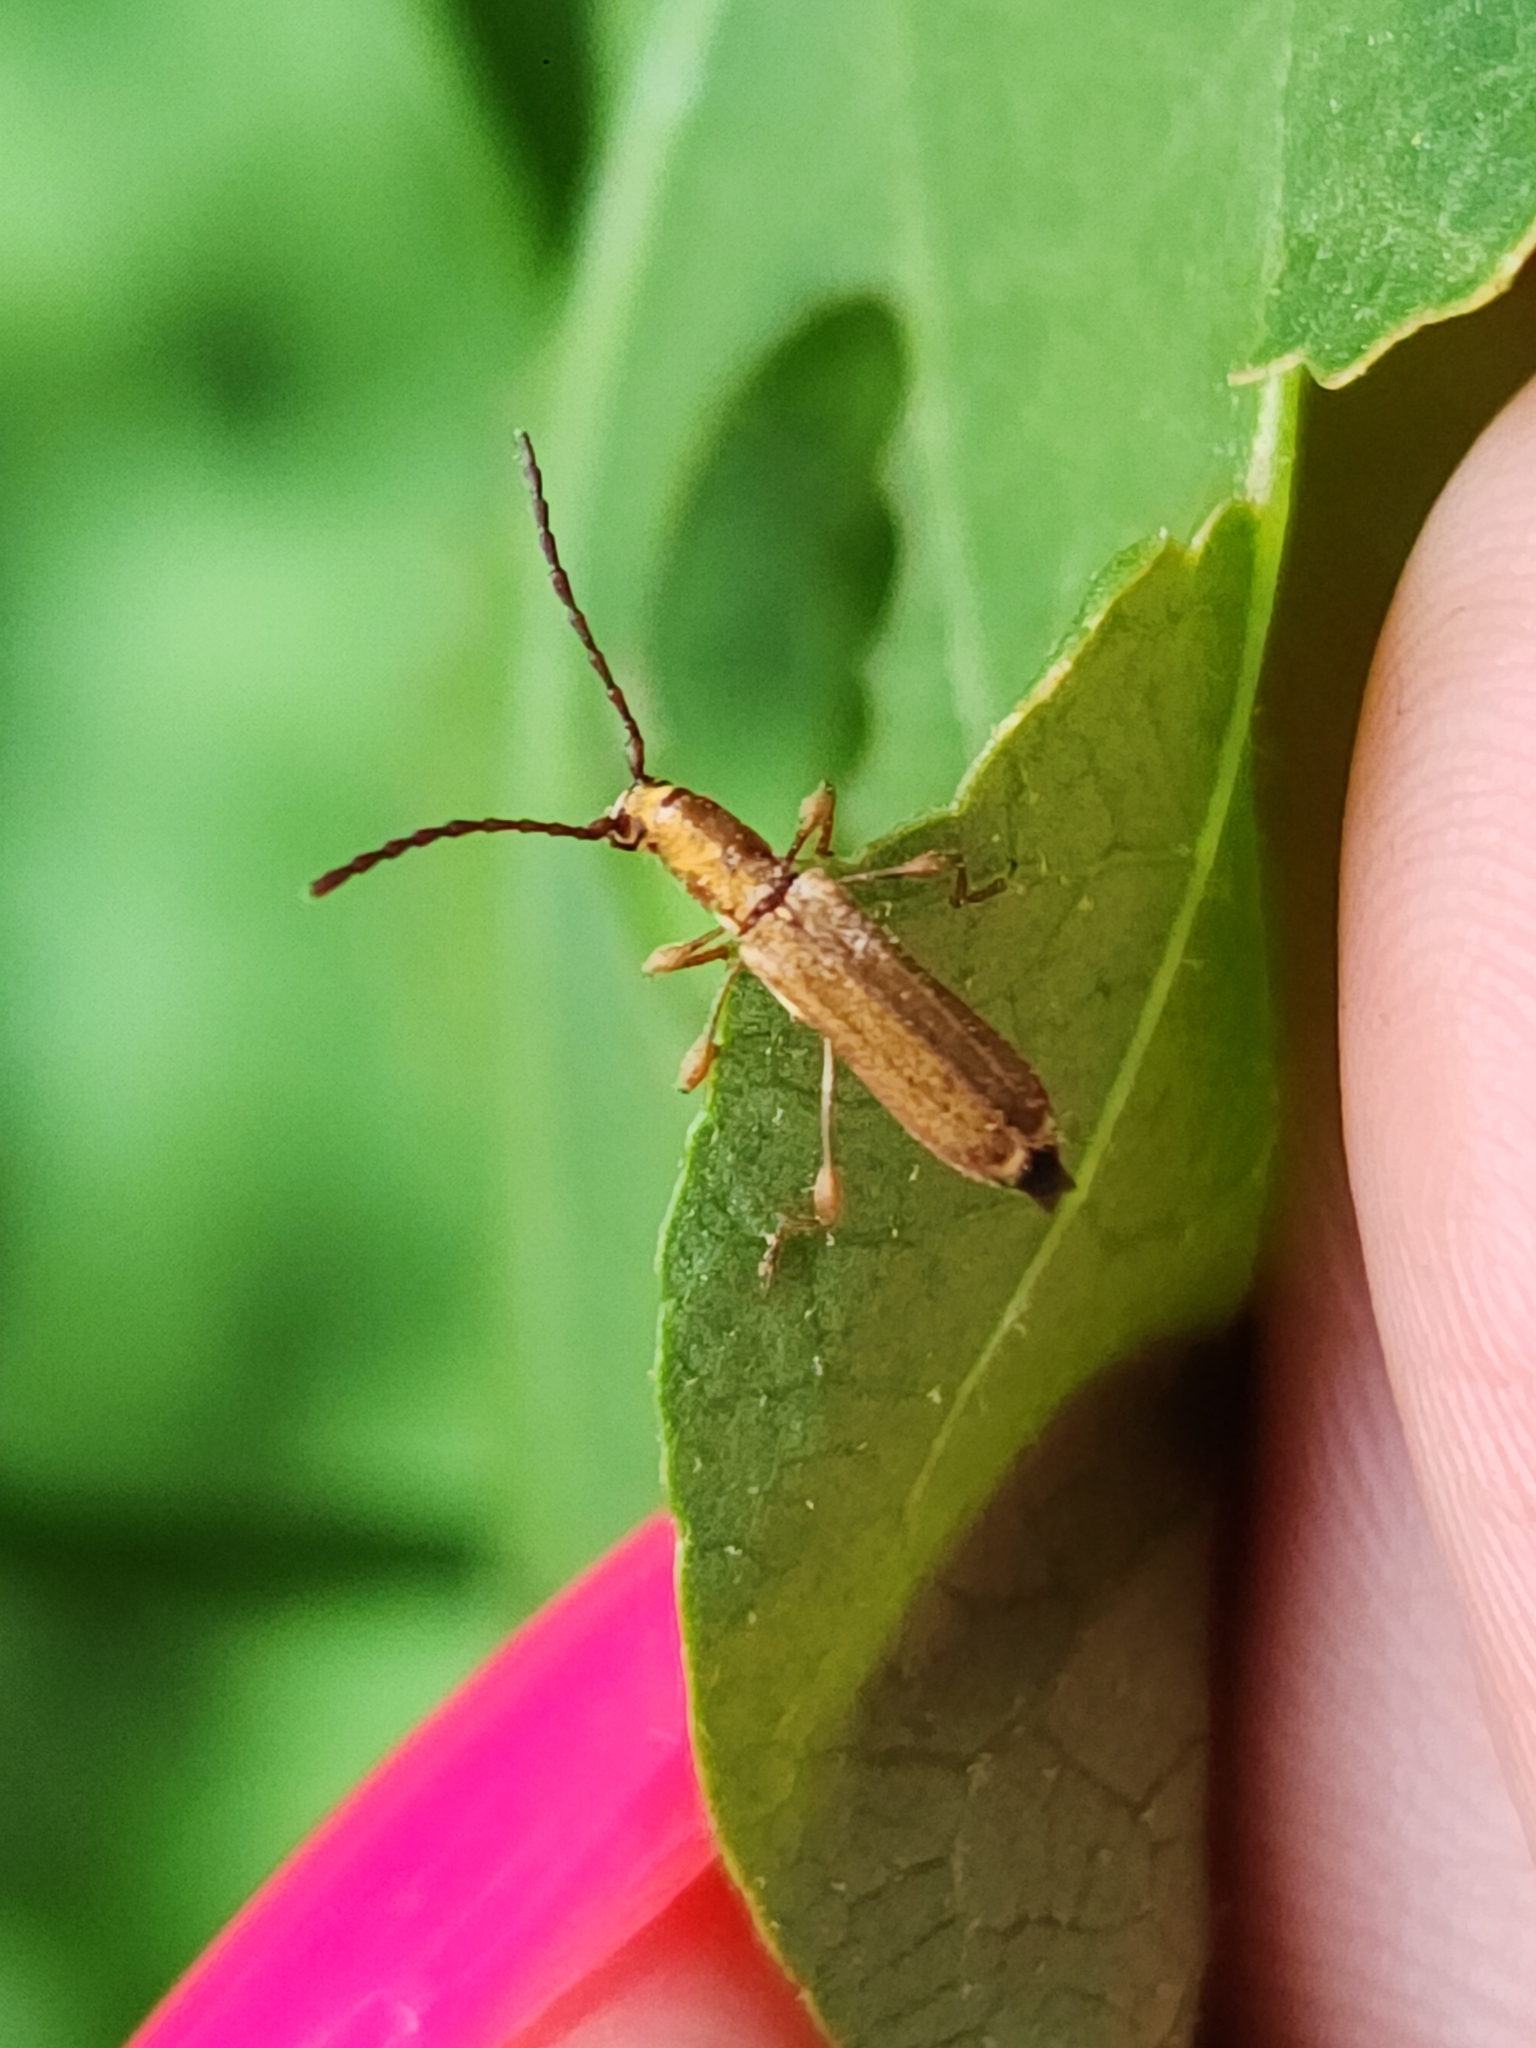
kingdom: Animalia
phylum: Arthropoda
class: Insecta
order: Coleoptera
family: Cerambycidae
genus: Dihammaphora
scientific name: Dihammaphora auricollis
